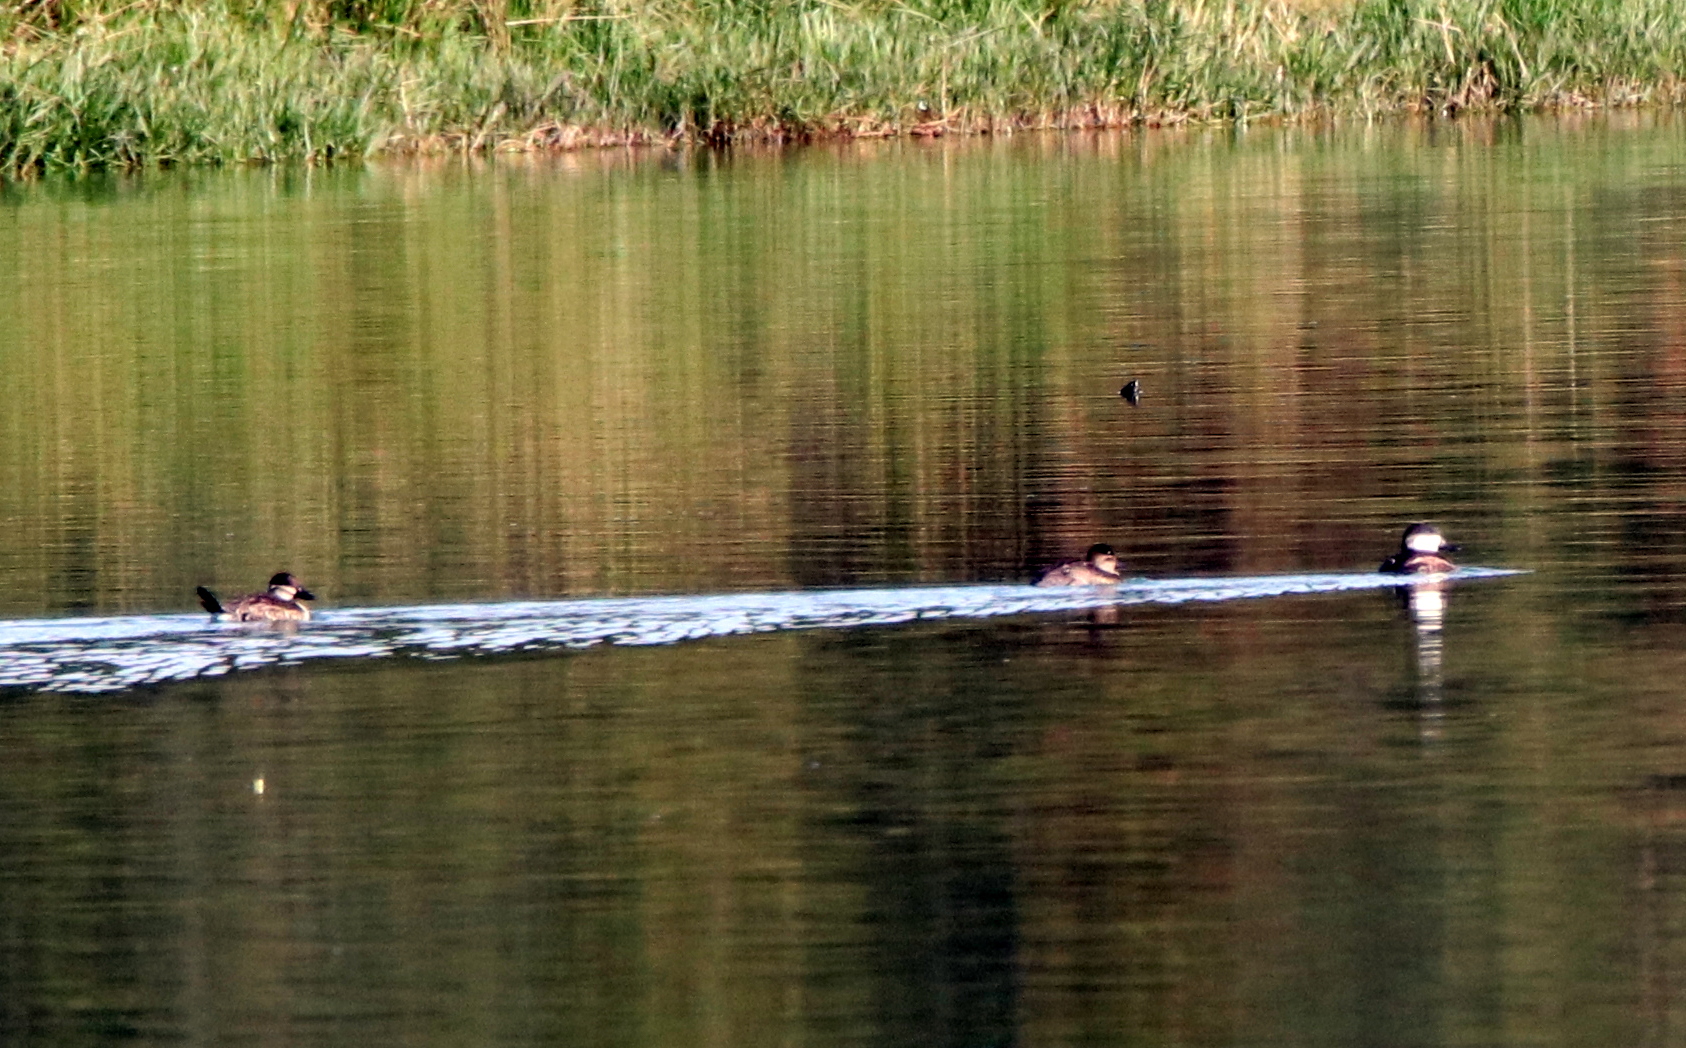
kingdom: Animalia
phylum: Chordata
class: Aves
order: Anseriformes
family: Anatidae
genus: Oxyura
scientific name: Oxyura jamaicensis
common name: Ruddy duck
